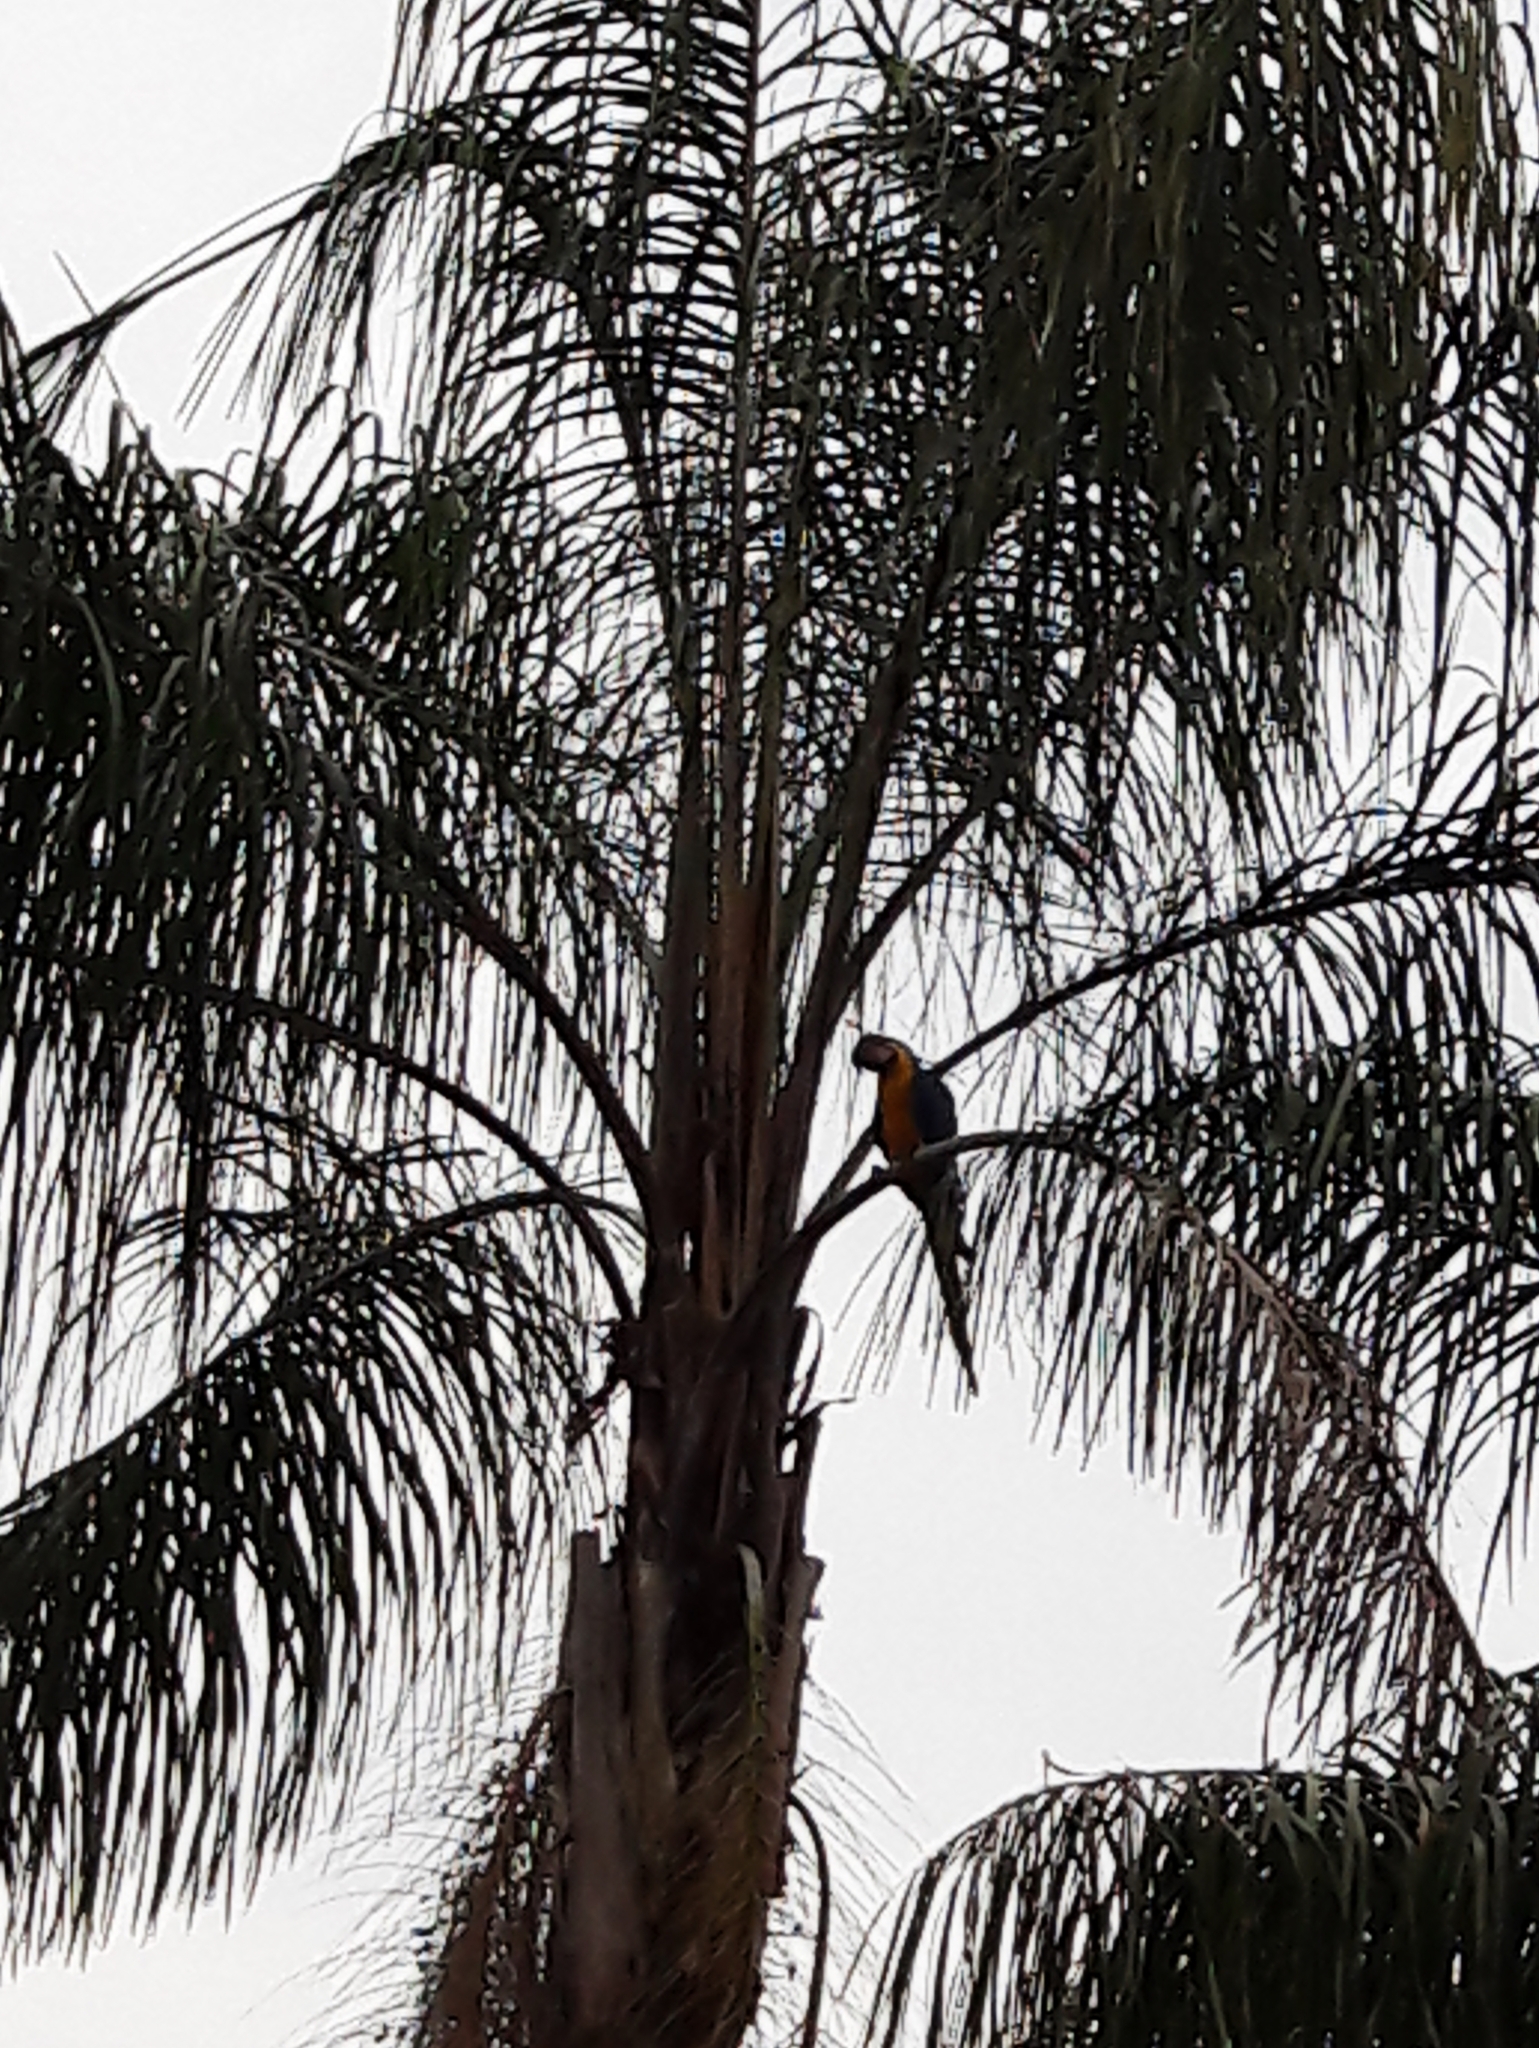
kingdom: Animalia
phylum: Chordata
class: Aves
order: Psittaciformes
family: Psittacidae
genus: Ara
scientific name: Ara ararauna
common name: Blue-and-yellow macaw
